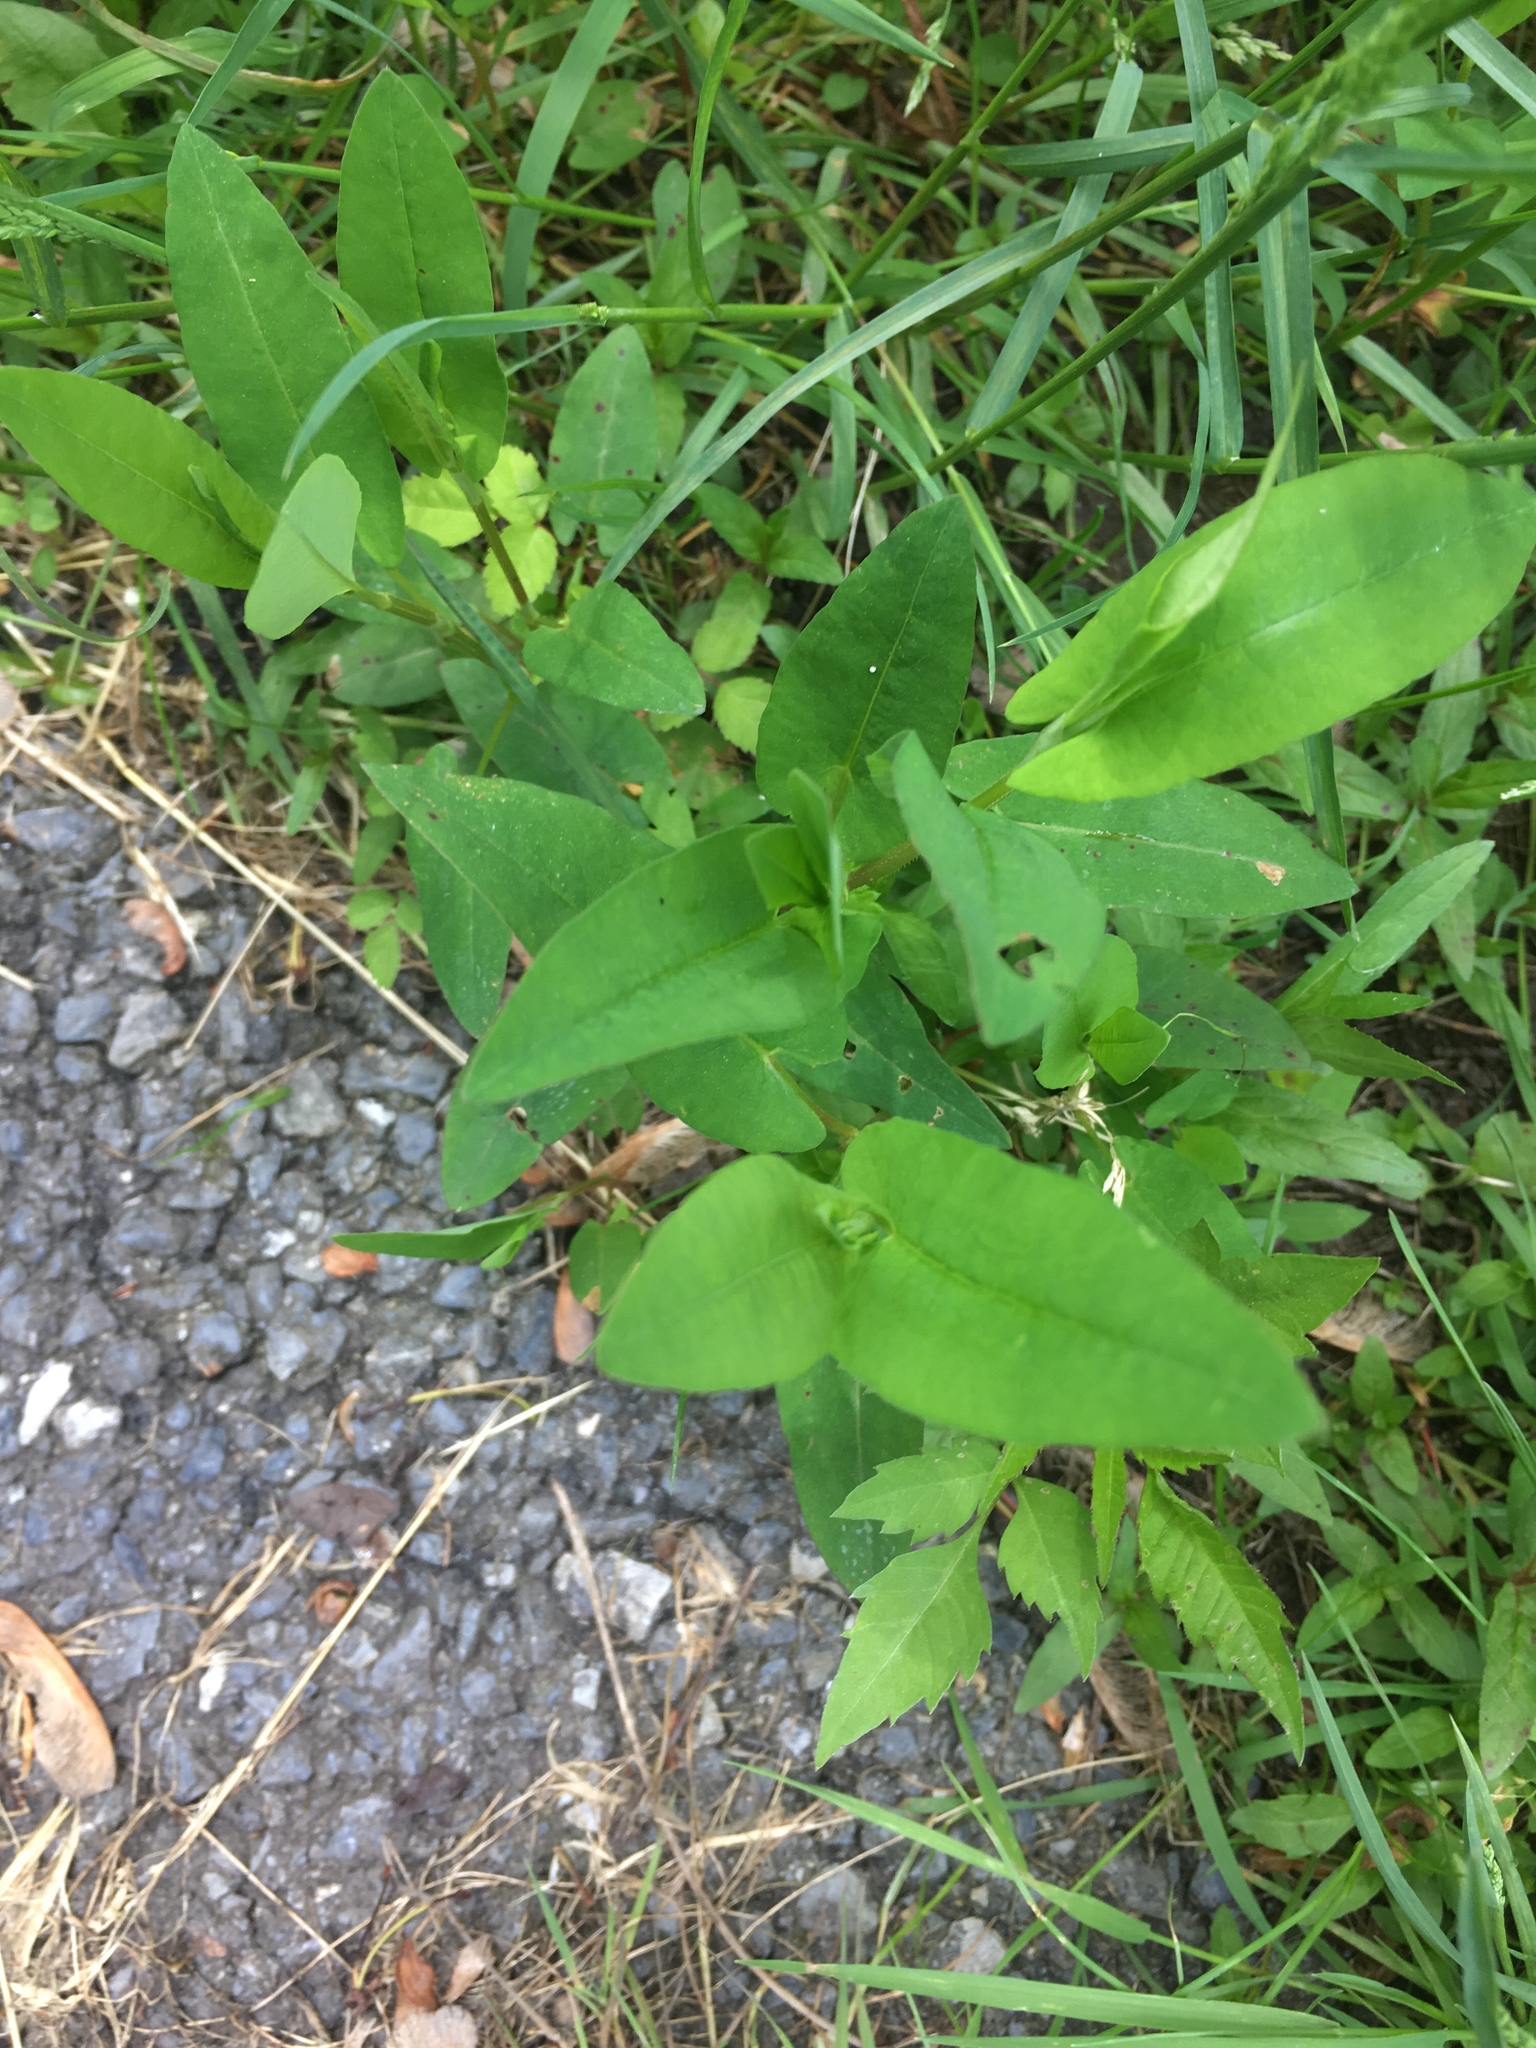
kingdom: Plantae
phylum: Tracheophyta
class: Magnoliopsida
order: Caryophyllales
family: Polygonaceae
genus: Persicaria
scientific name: Persicaria sagittata
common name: American tearthumb
